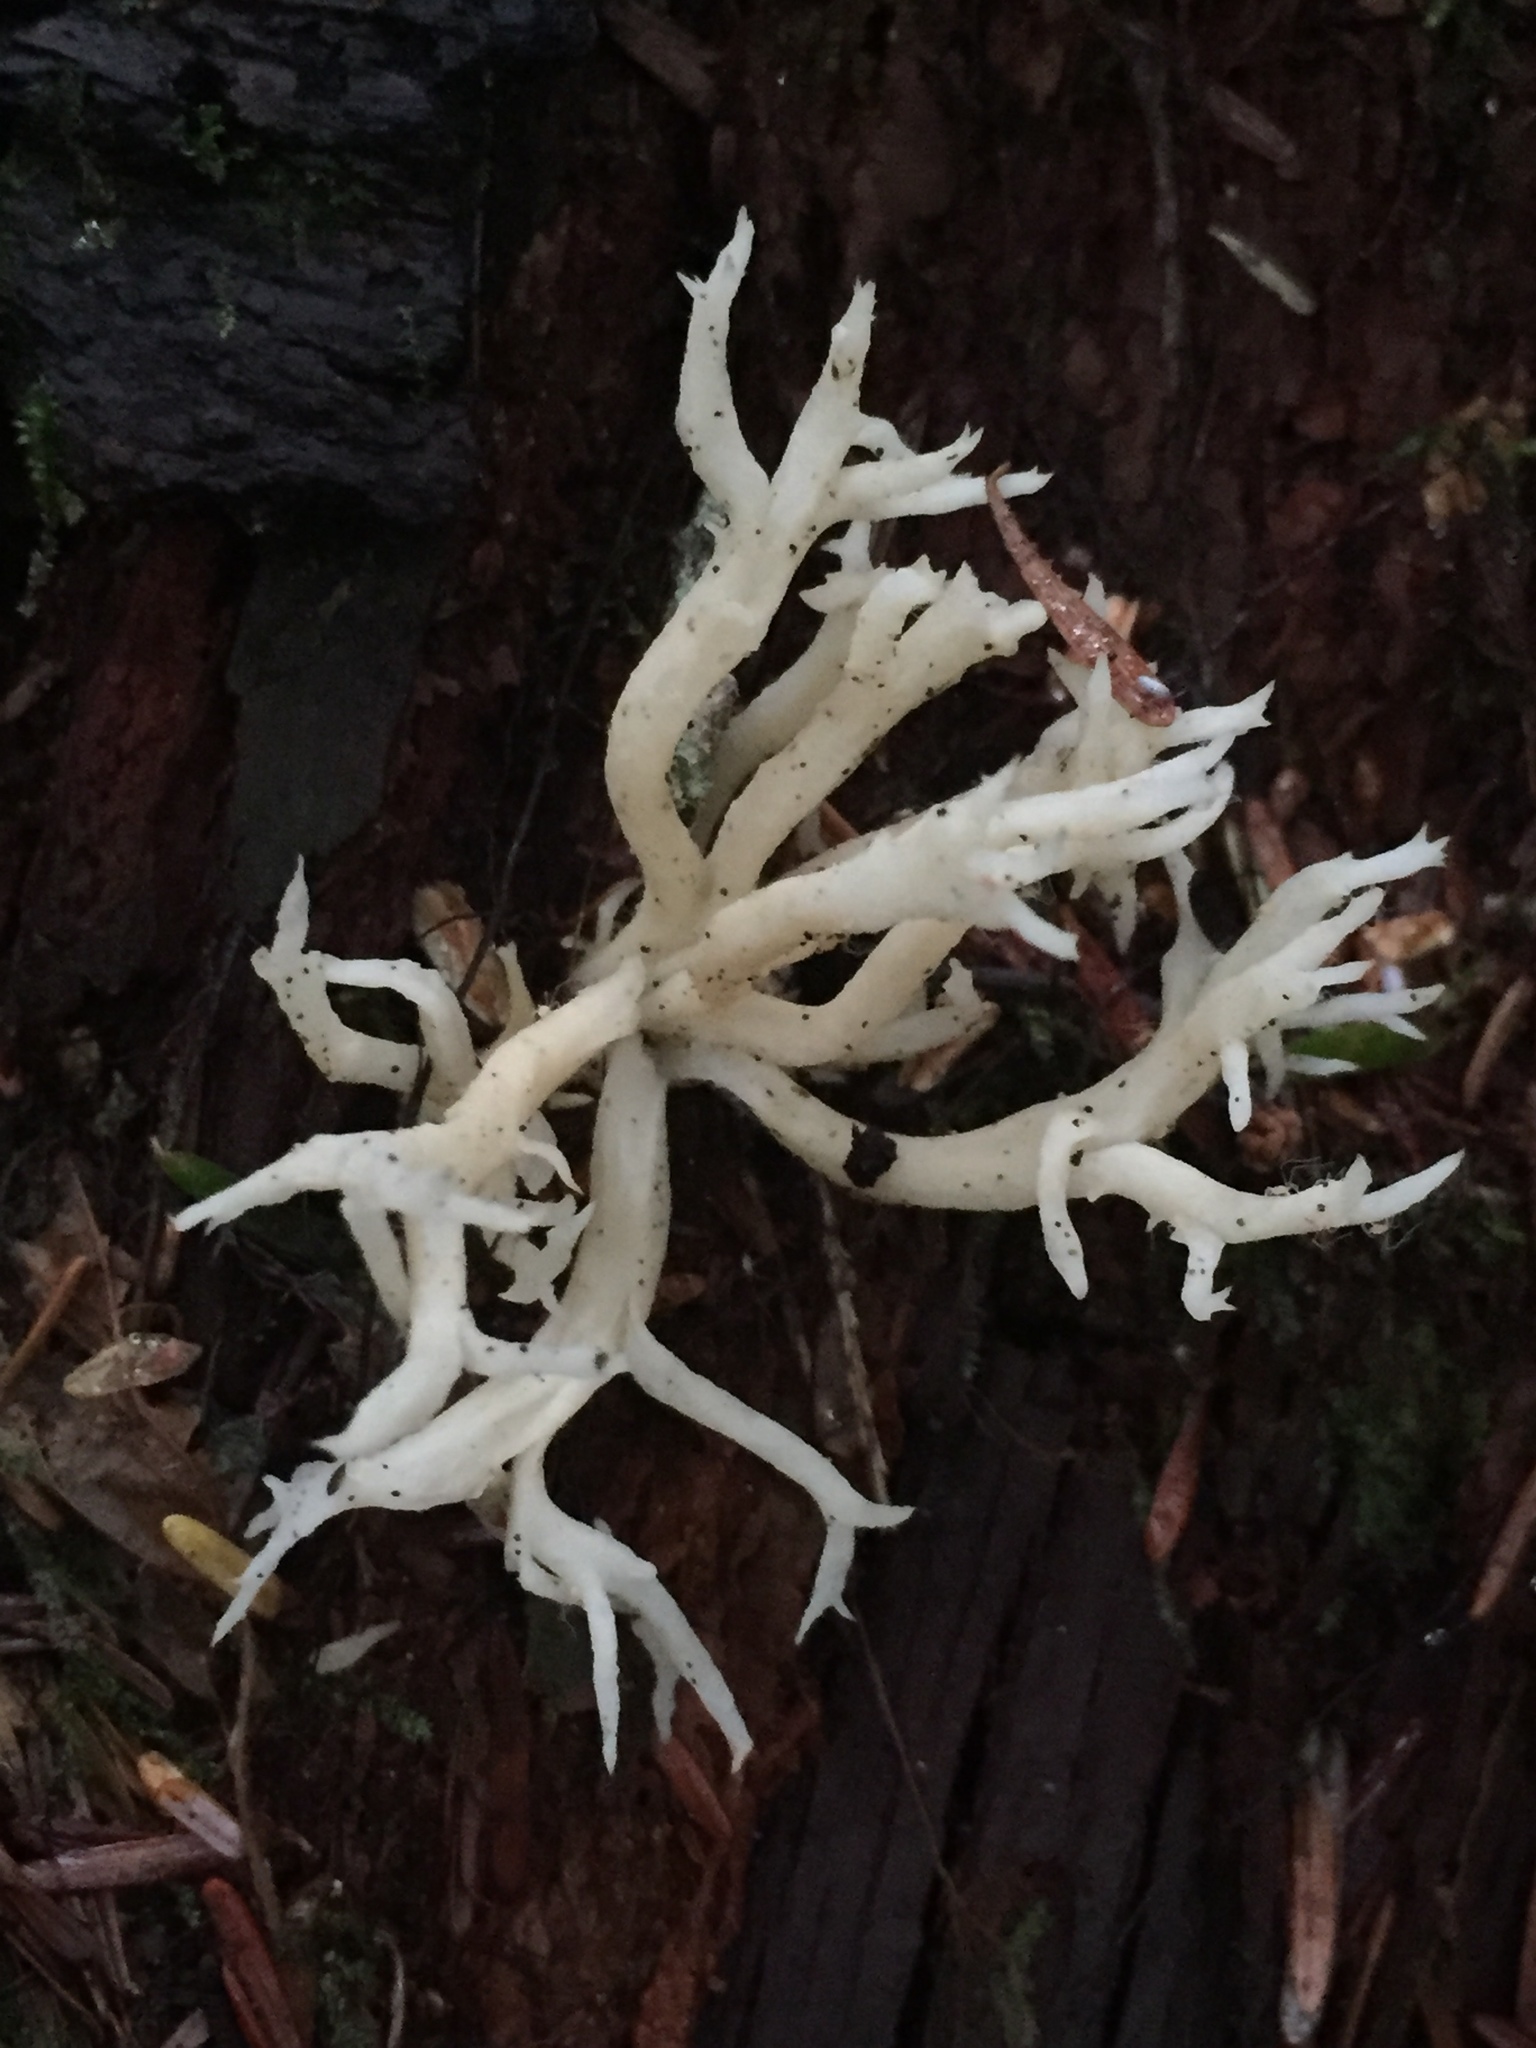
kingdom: Fungi
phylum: Basidiomycota
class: Agaricomycetes
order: Cantharellales
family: Hydnaceae
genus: Clavulina
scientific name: Clavulina coralloides
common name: Crested coral
